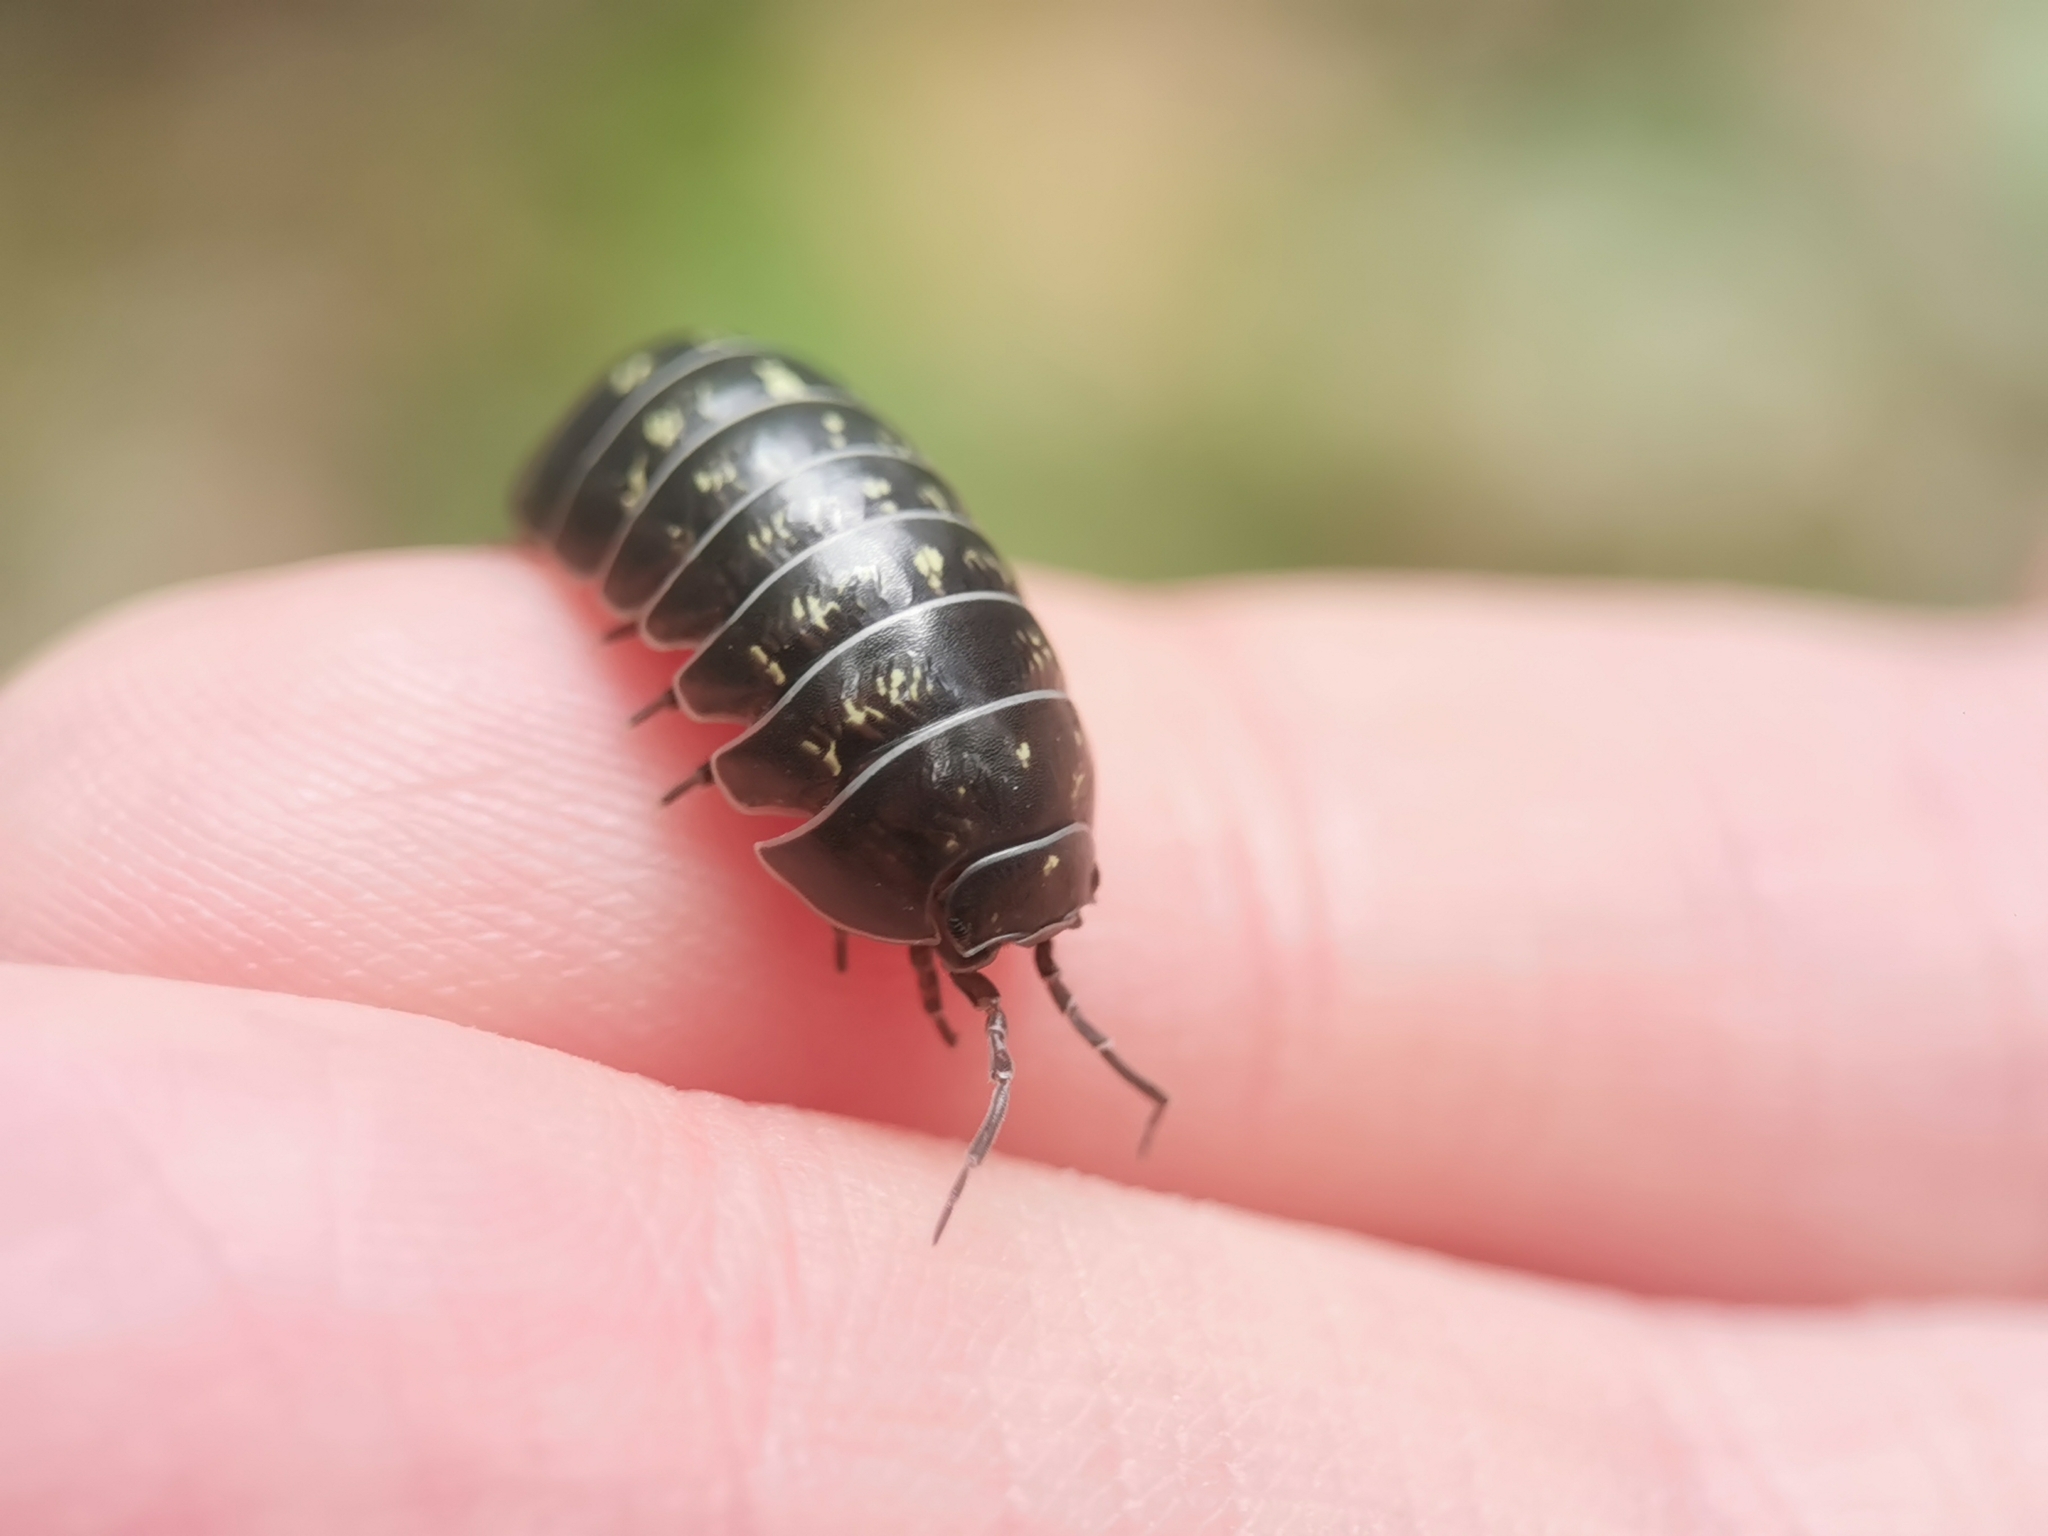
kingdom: Animalia
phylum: Arthropoda
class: Malacostraca
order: Isopoda
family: Armadillidiidae
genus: Armadillidium
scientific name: Armadillidium vulgare
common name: Common pill woodlouse
